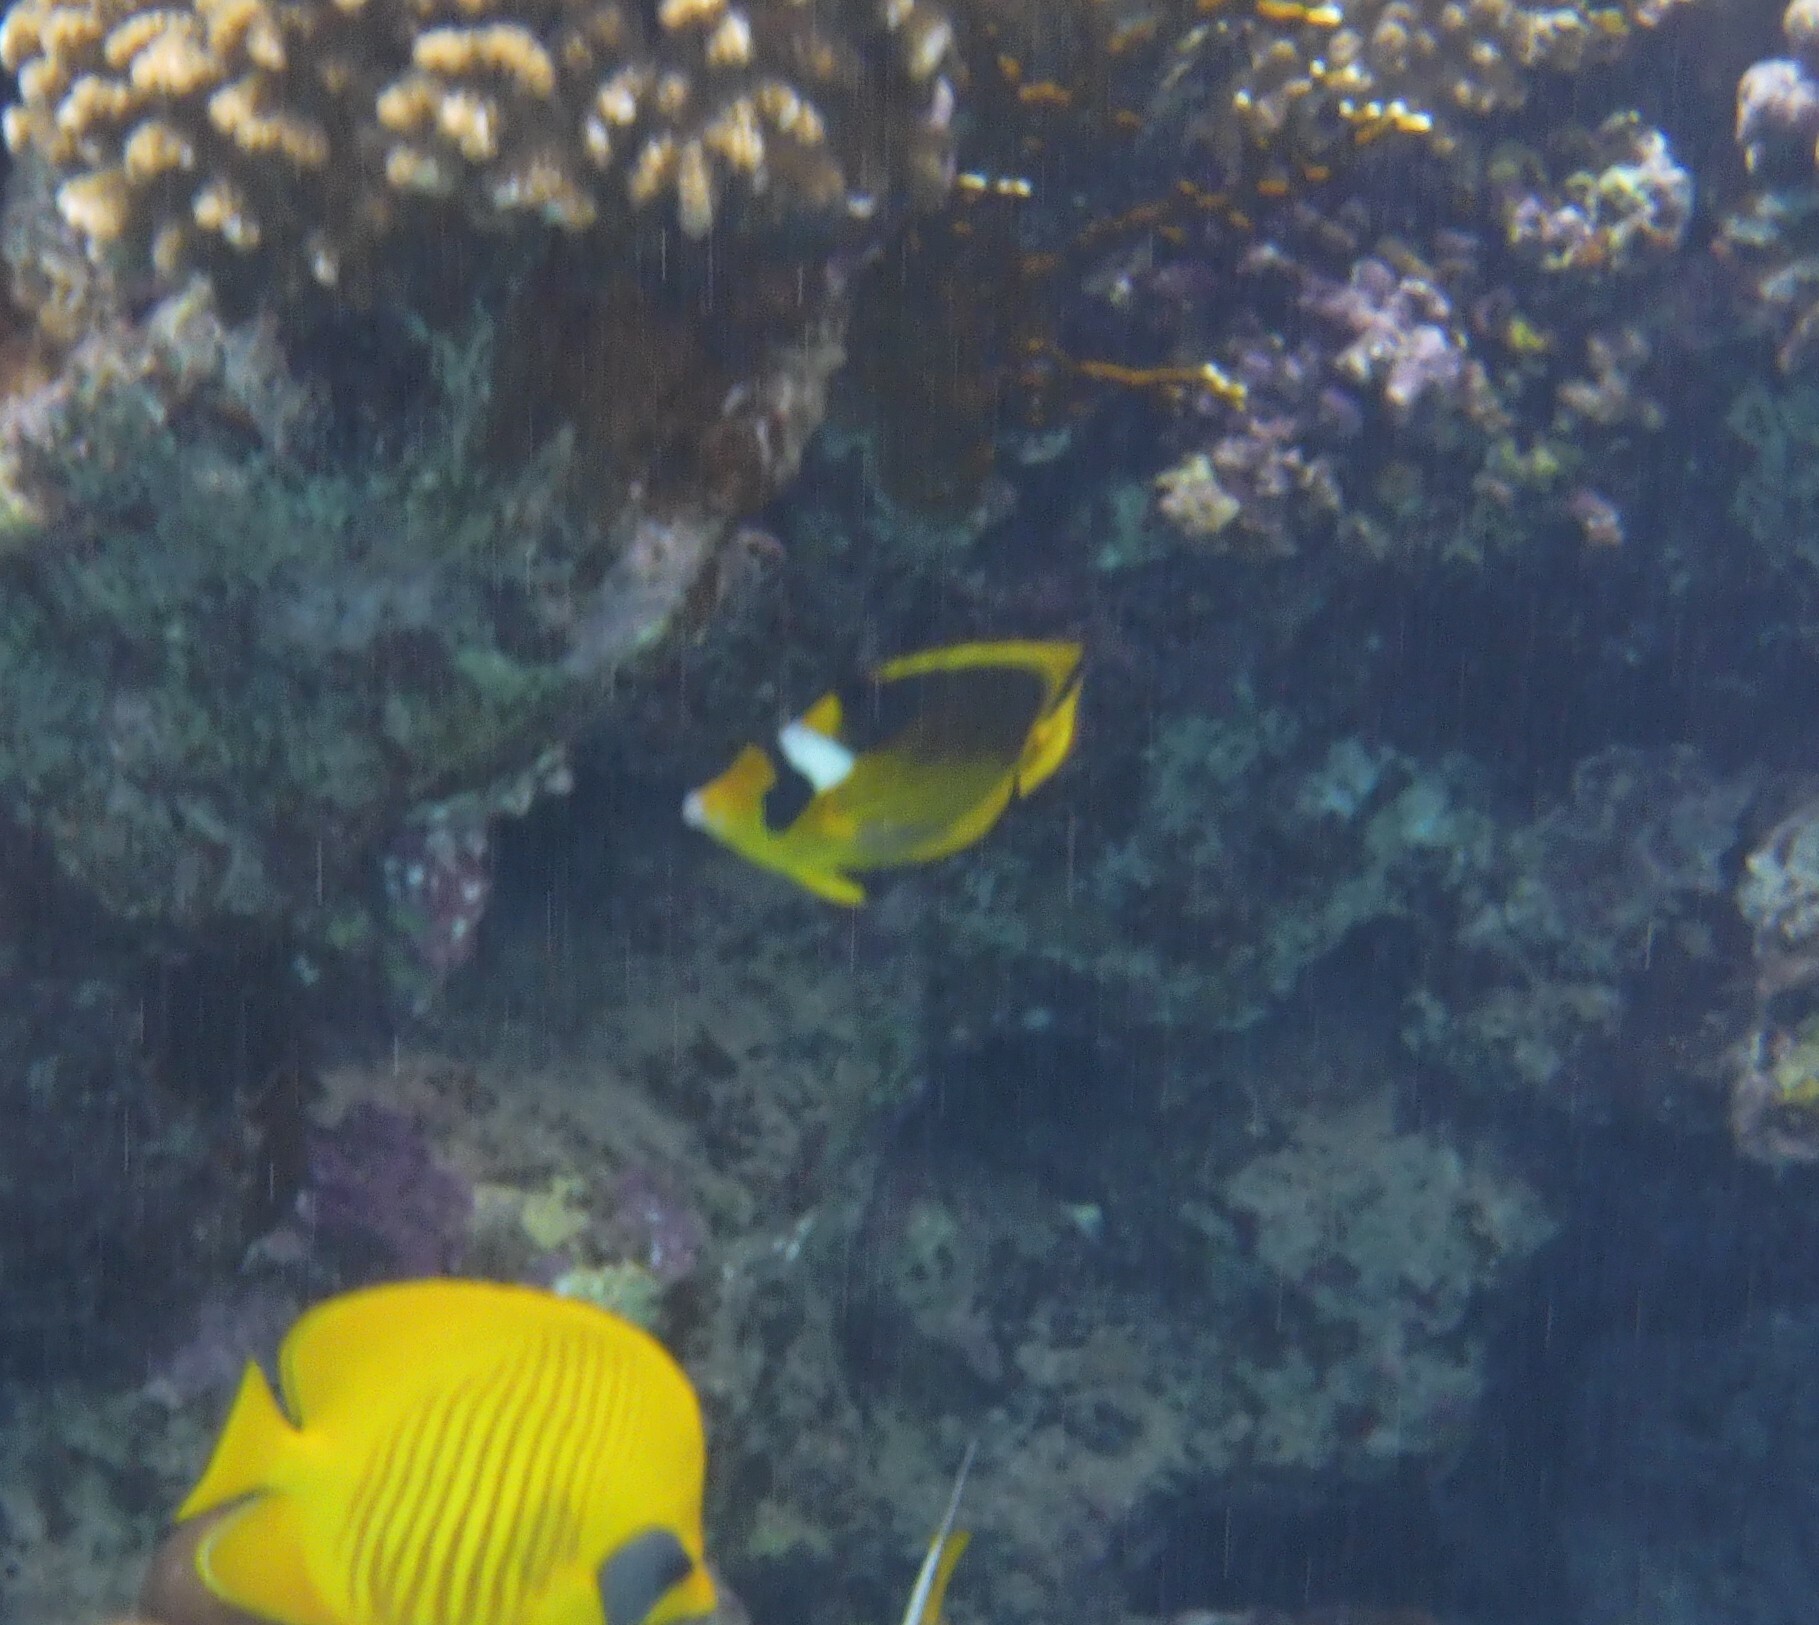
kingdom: Animalia
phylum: Chordata
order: Perciformes
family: Chaetodontidae
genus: Chaetodon
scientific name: Chaetodon fasciatus
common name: Diagonal butterflyfish
